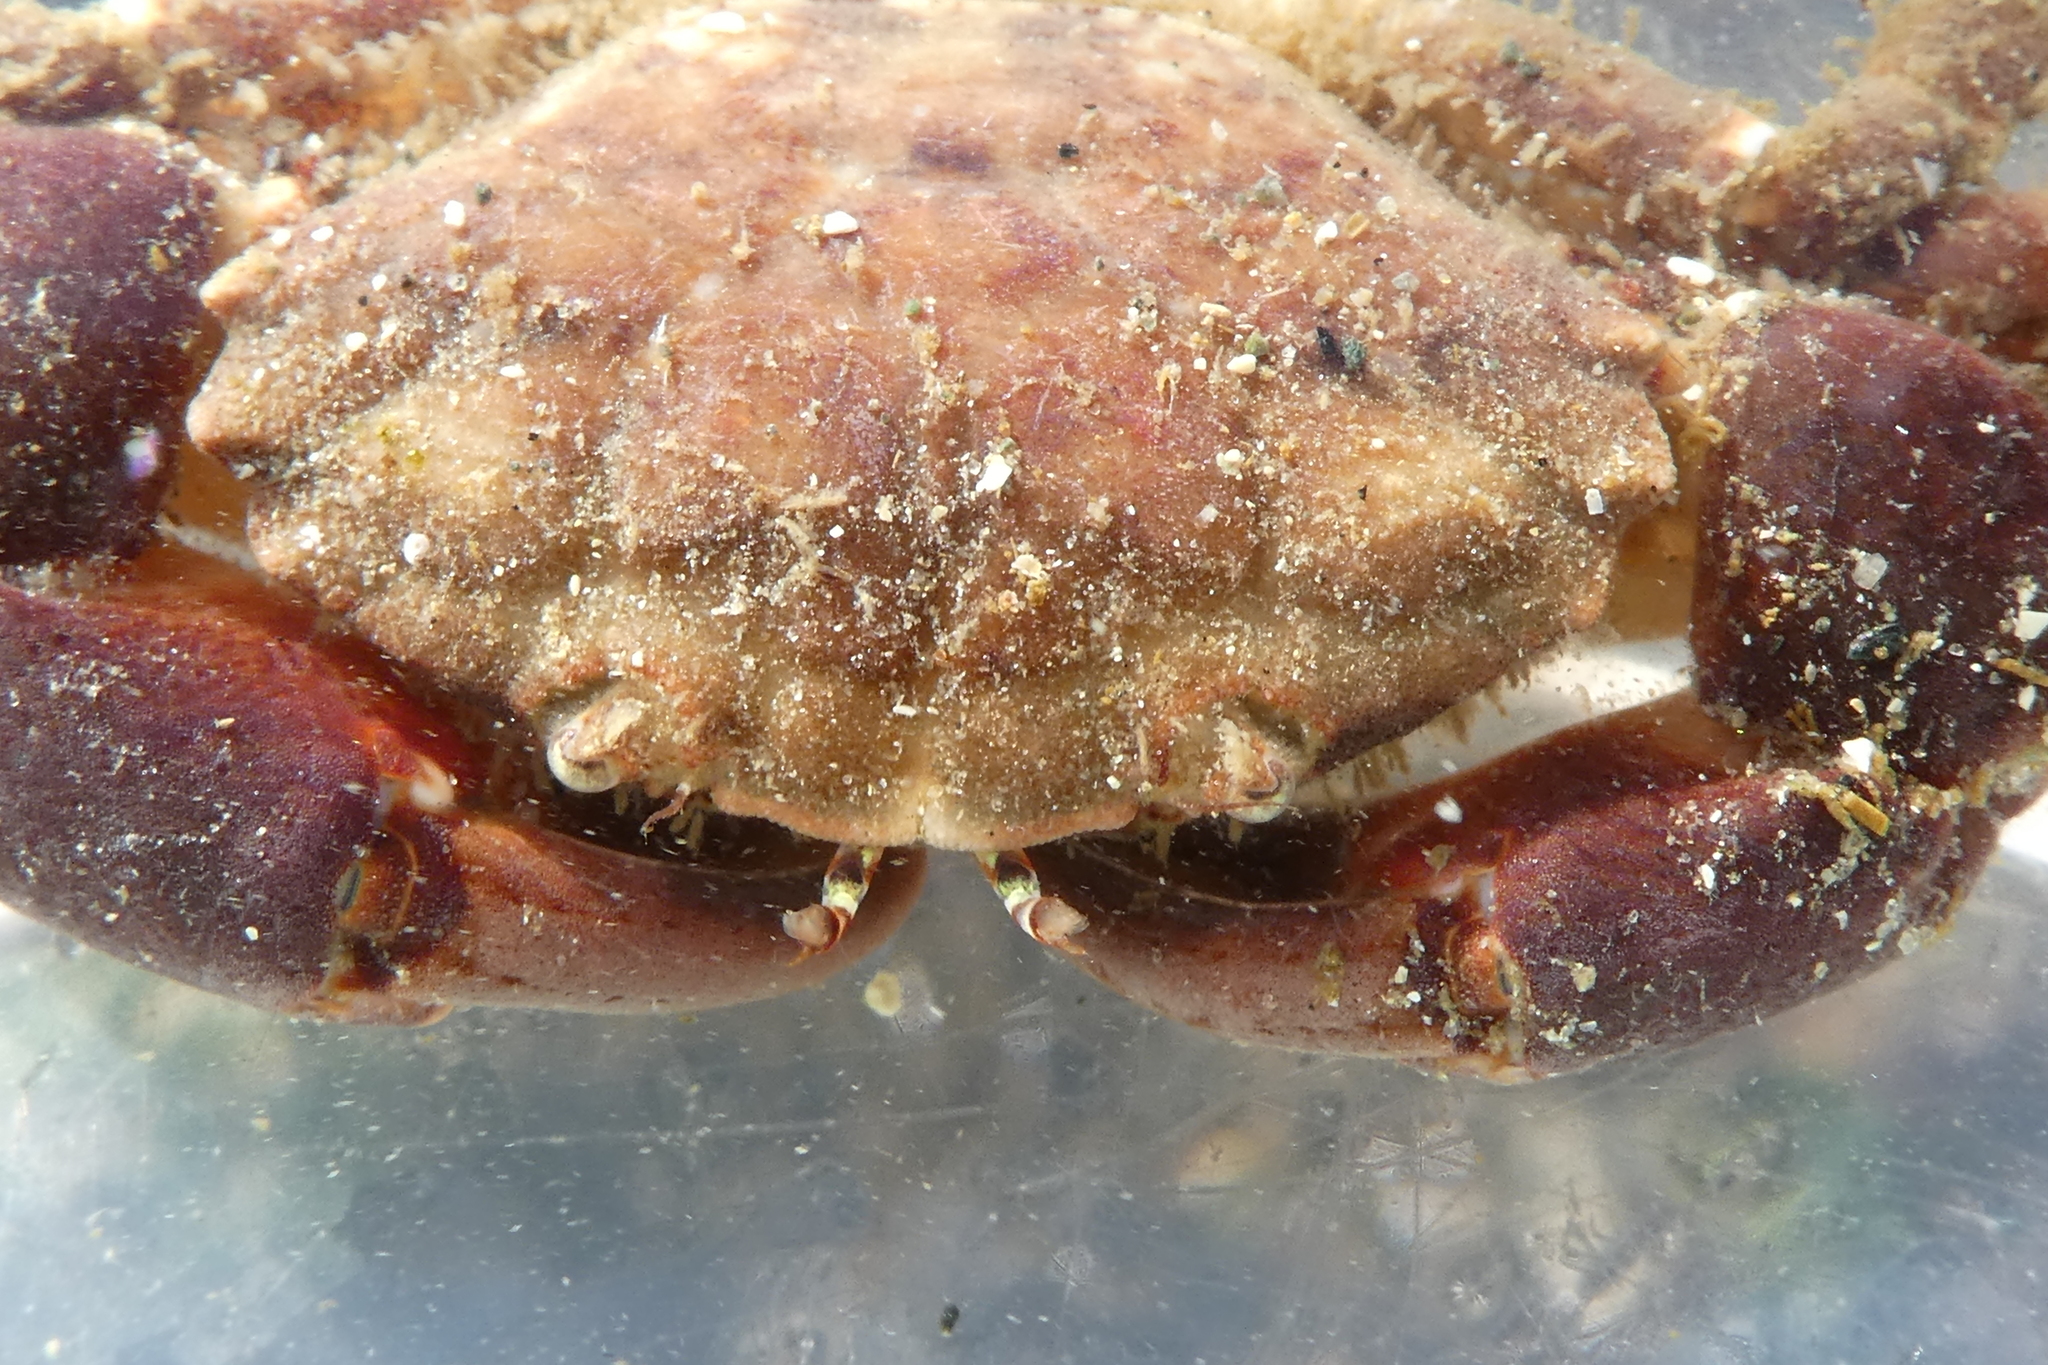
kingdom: Animalia
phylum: Arthropoda
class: Malacostraca
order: Decapoda
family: Panopeidae
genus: Lophopanopeus
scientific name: Lophopanopeus bellus
